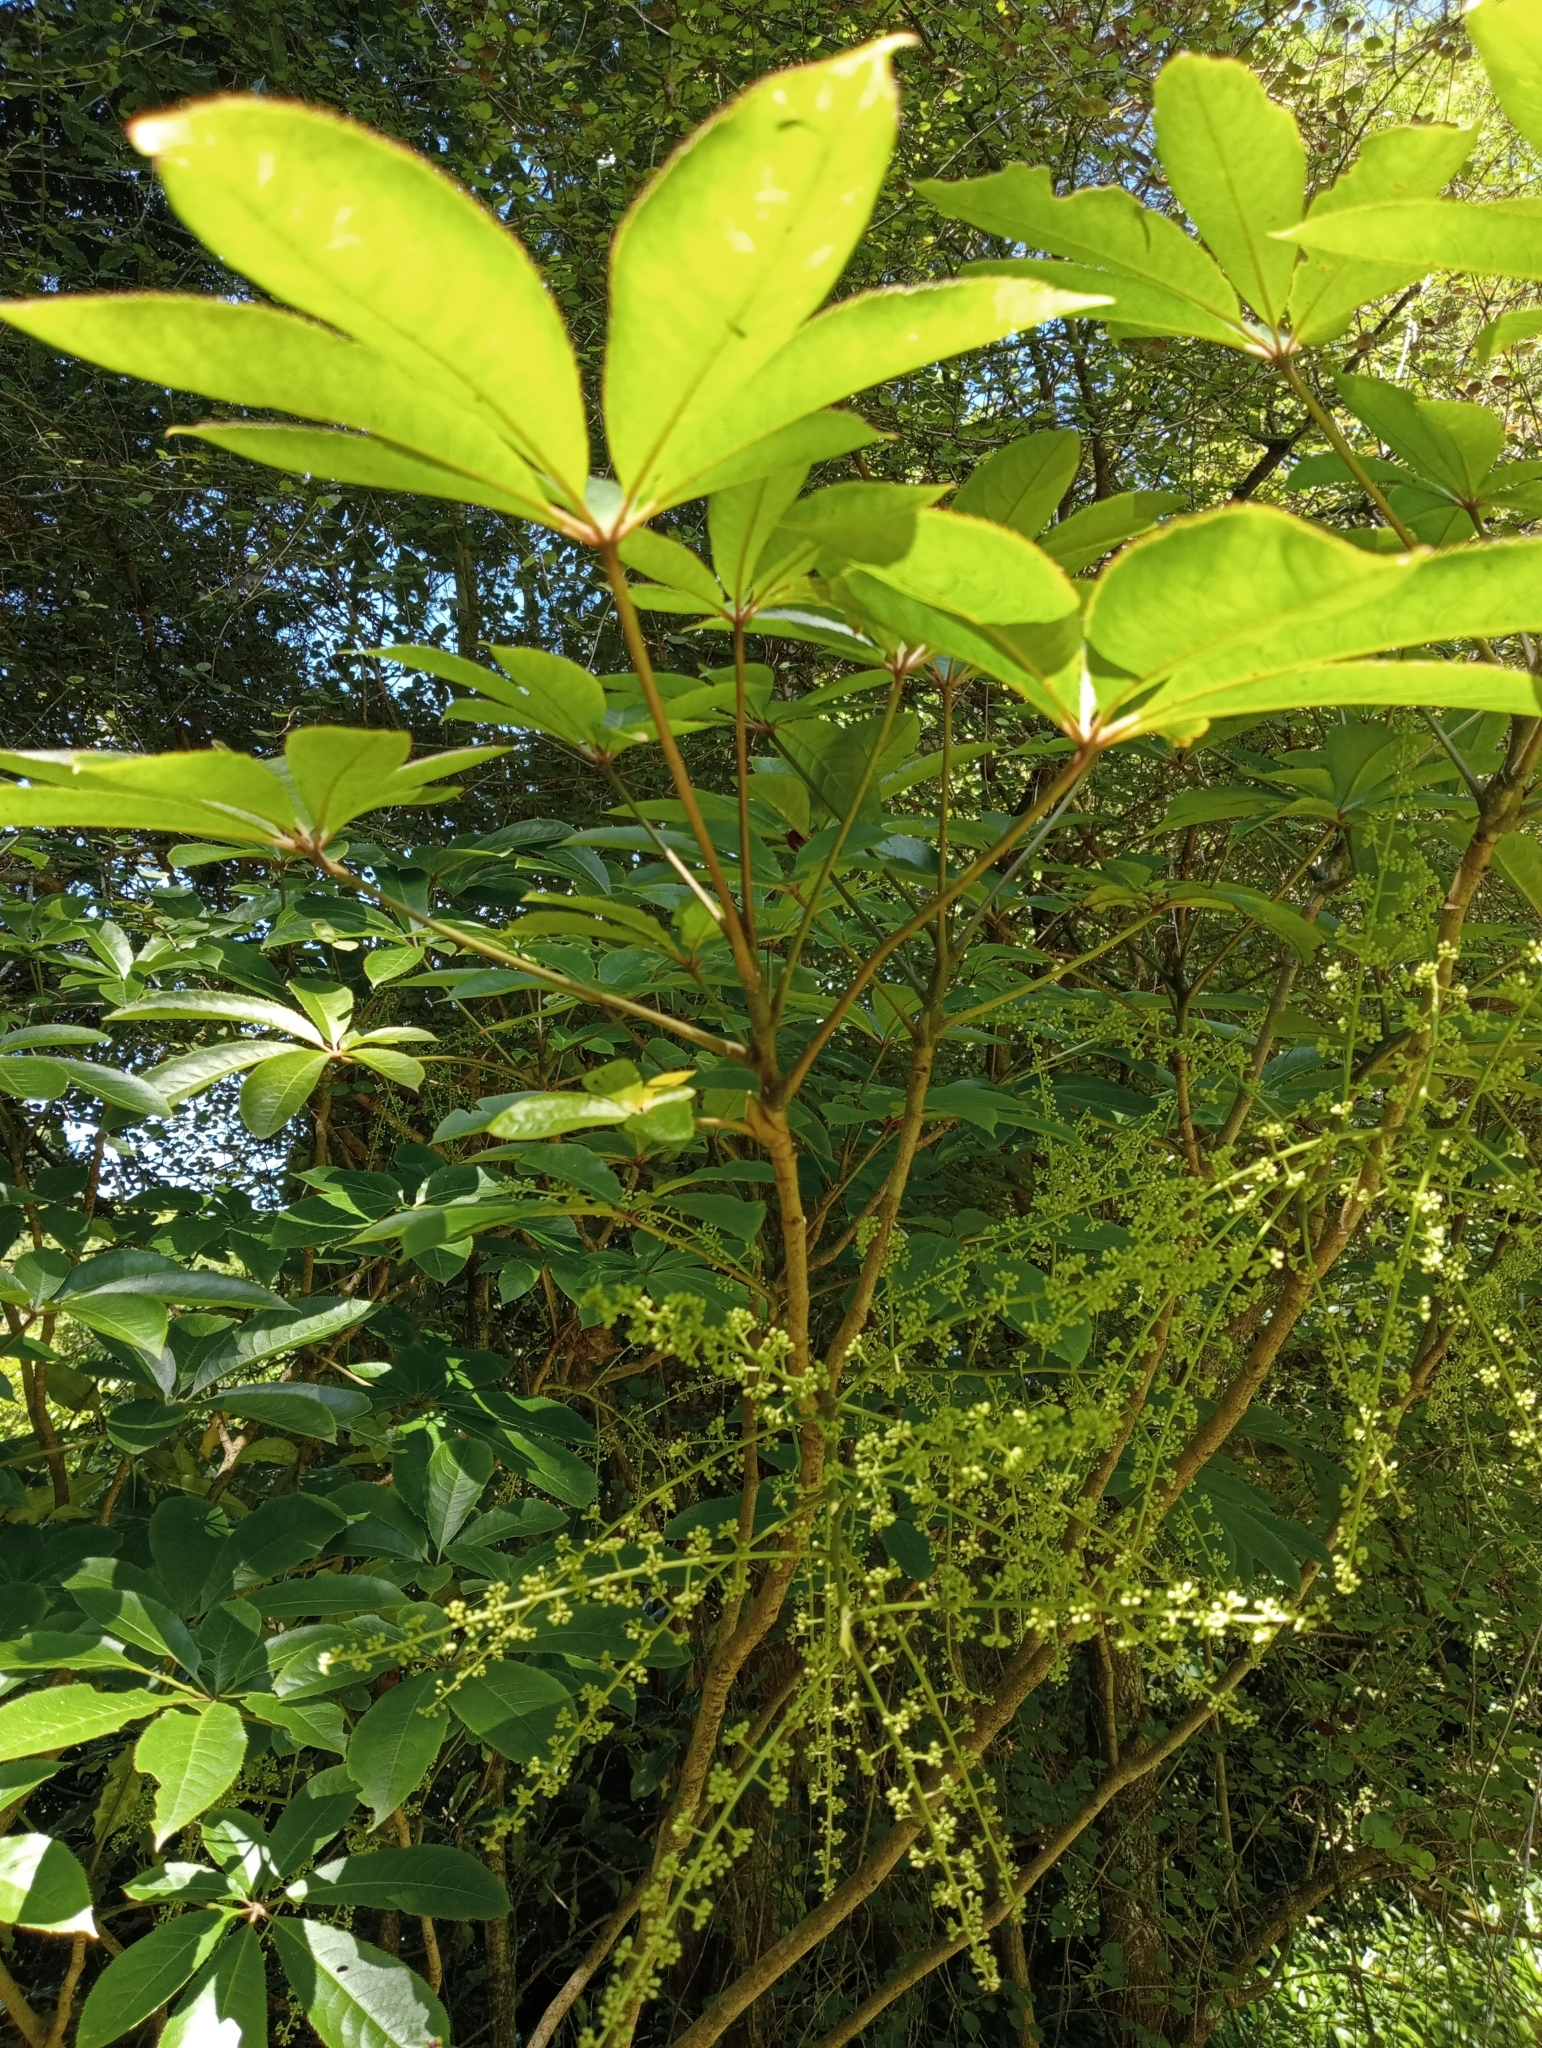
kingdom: Plantae
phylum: Tracheophyta
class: Magnoliopsida
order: Apiales
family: Araliaceae
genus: Schefflera
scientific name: Schefflera digitata
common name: Pate
